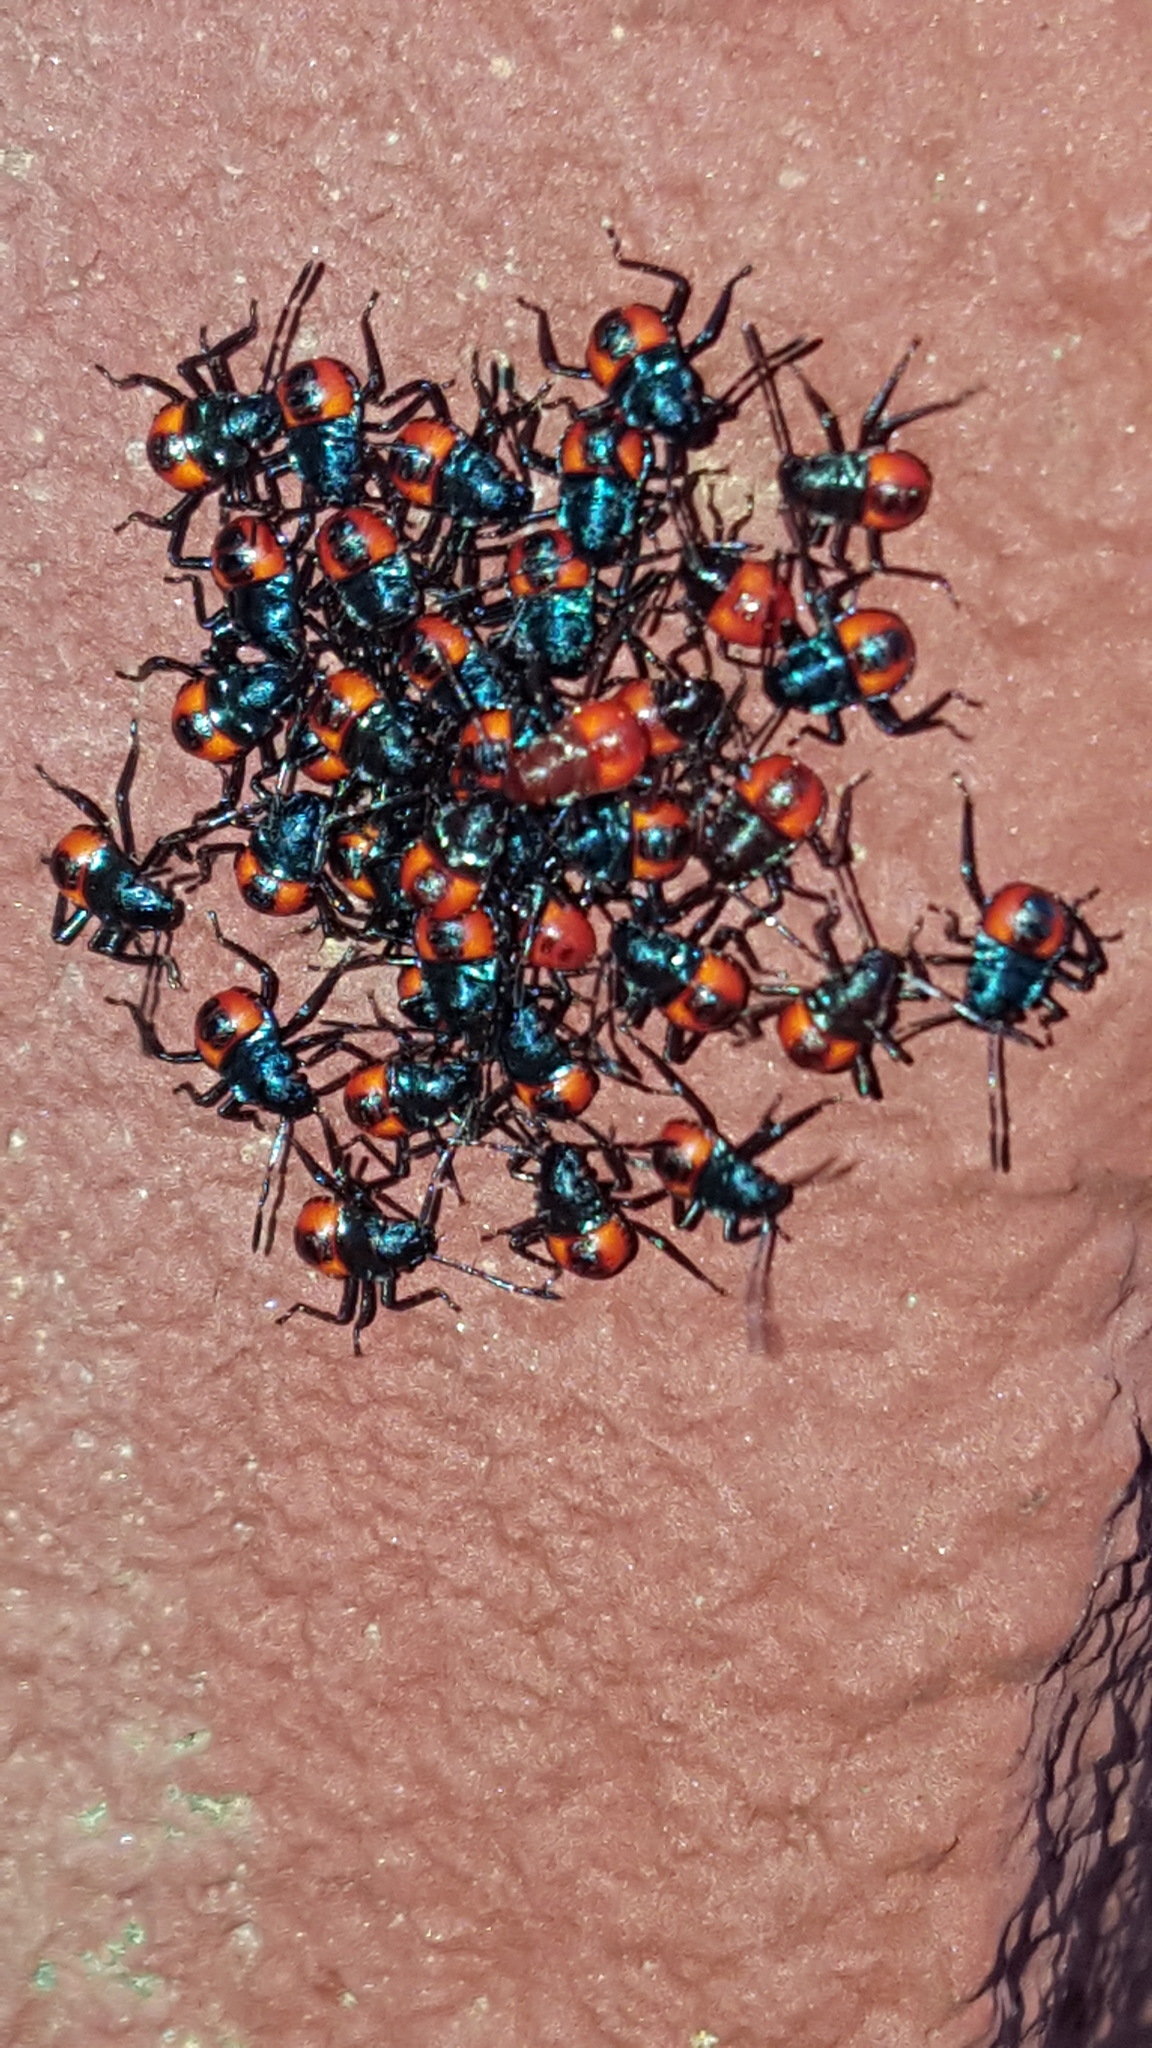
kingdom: Animalia
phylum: Arthropoda
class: Insecta
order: Hemiptera
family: Pentatomidae
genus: Euthyrhynchus
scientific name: Euthyrhynchus floridanus
